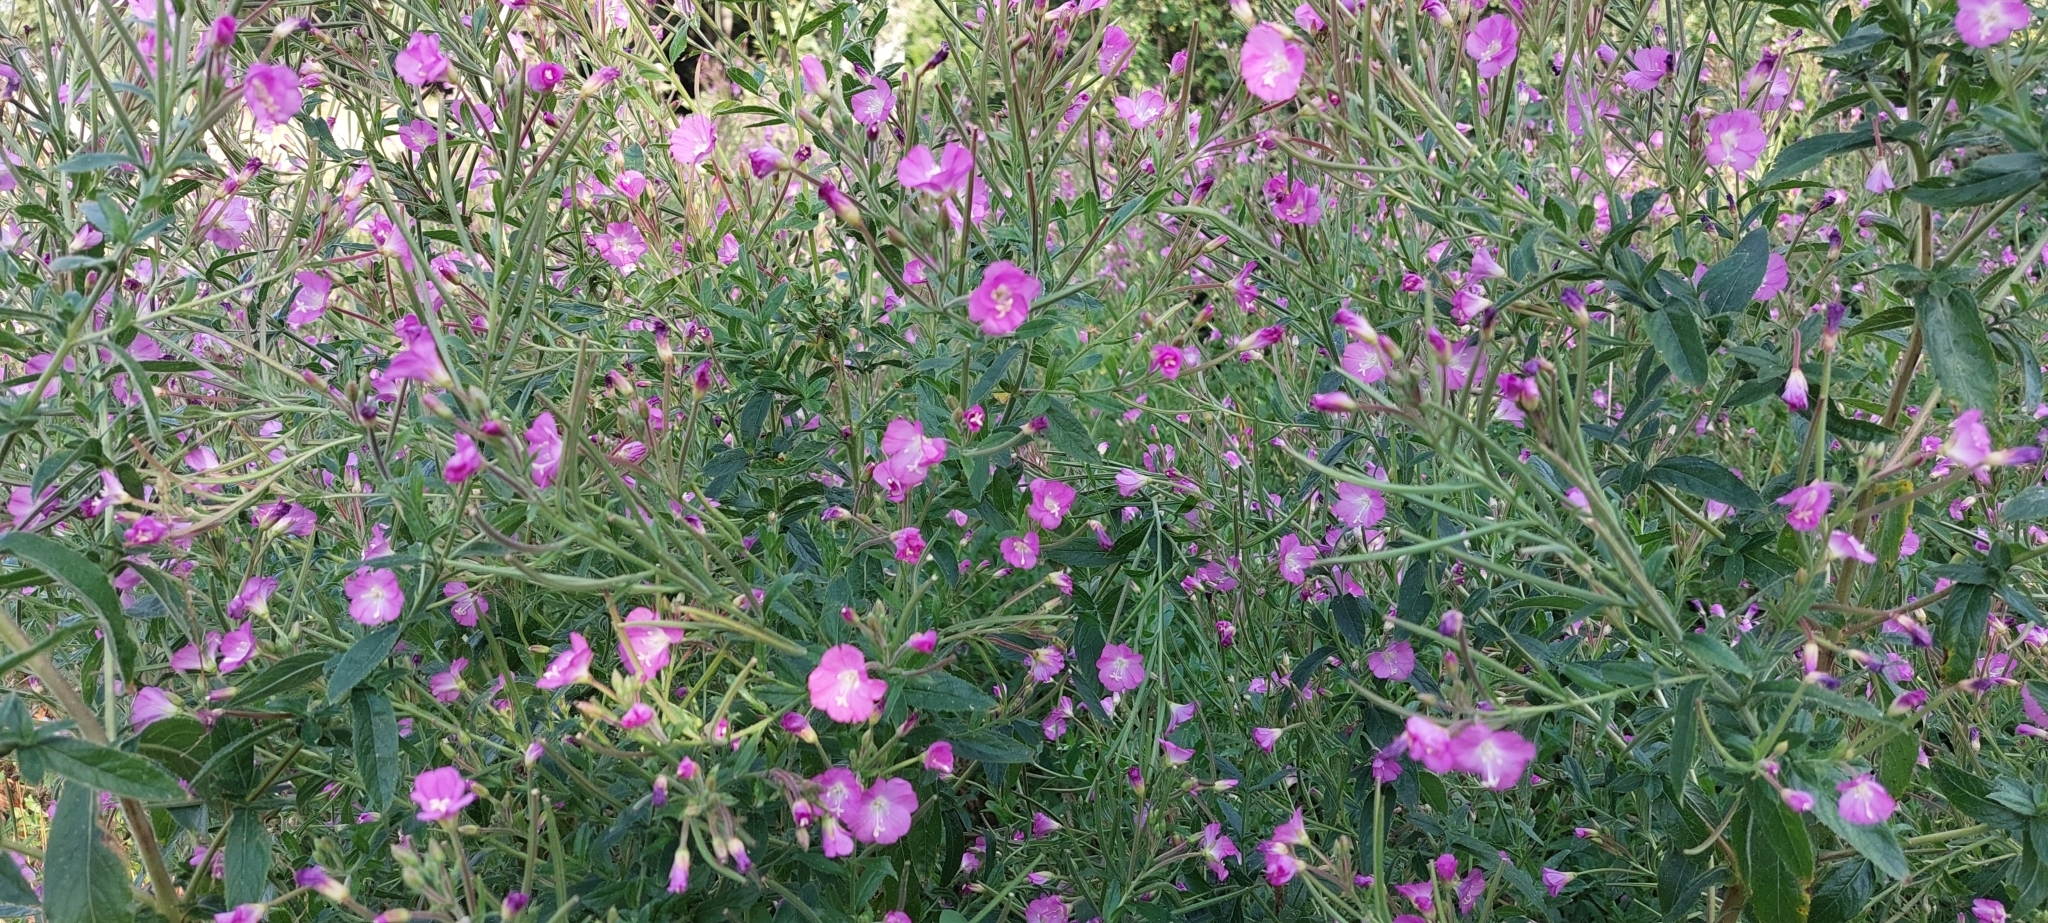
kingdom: Plantae
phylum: Tracheophyta
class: Magnoliopsida
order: Myrtales
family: Onagraceae
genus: Epilobium
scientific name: Epilobium hirsutum
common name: Great willowherb
